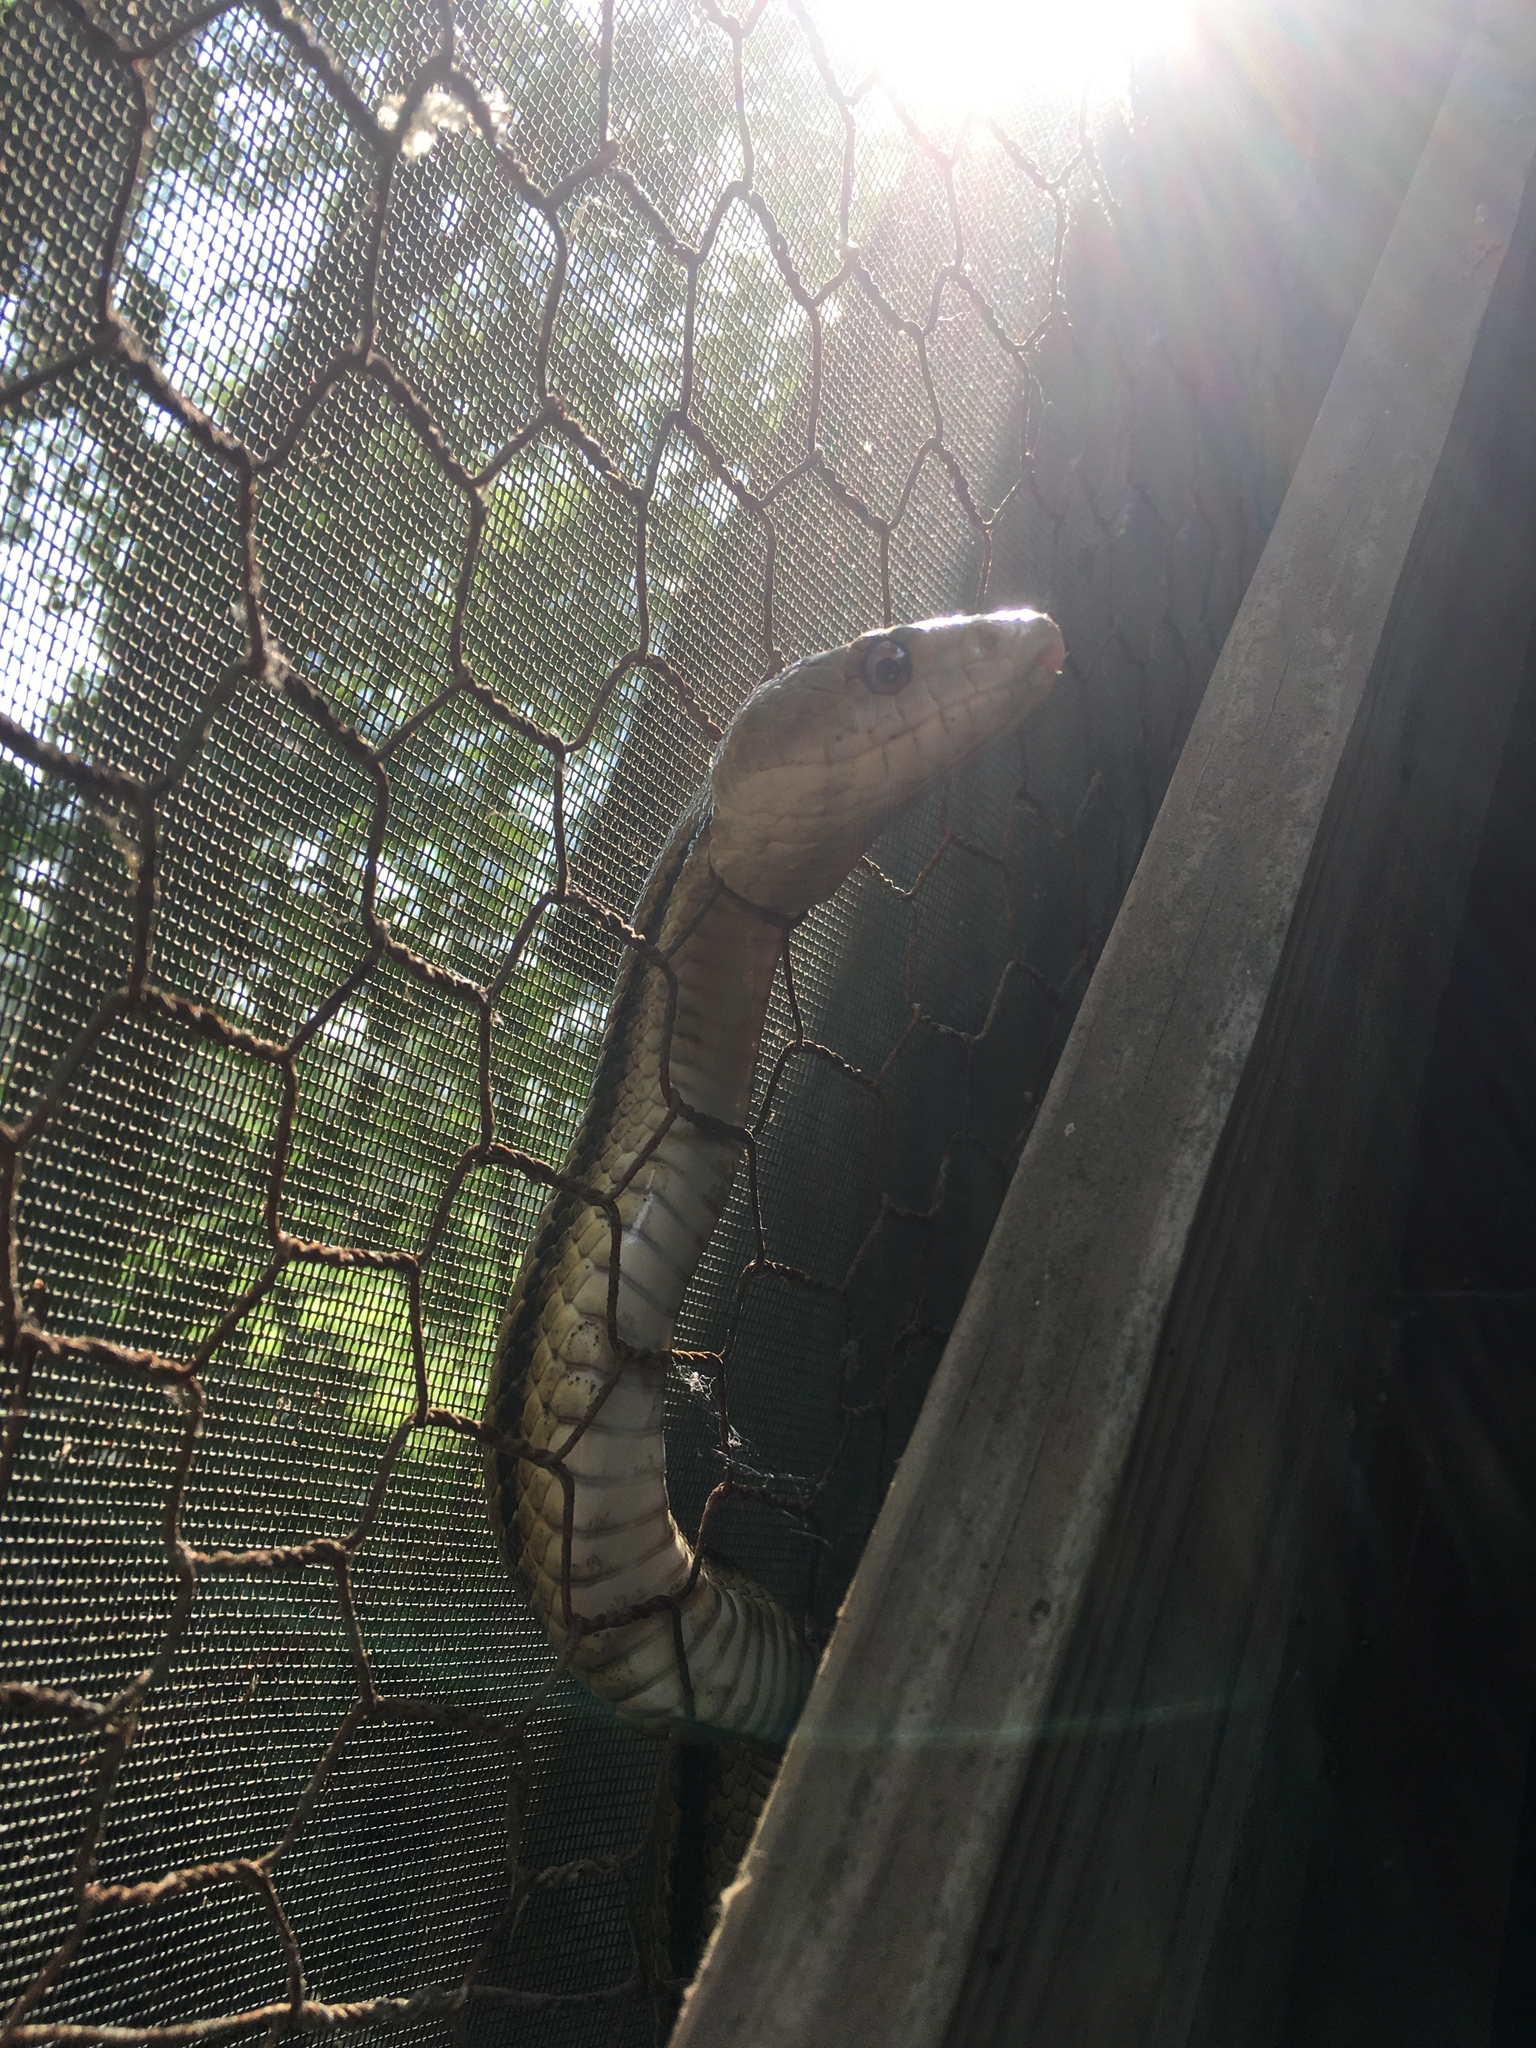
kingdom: Animalia
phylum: Chordata
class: Squamata
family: Colubridae
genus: Pantherophis
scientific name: Pantherophis alleghaniensis
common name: Eastern rat snake
